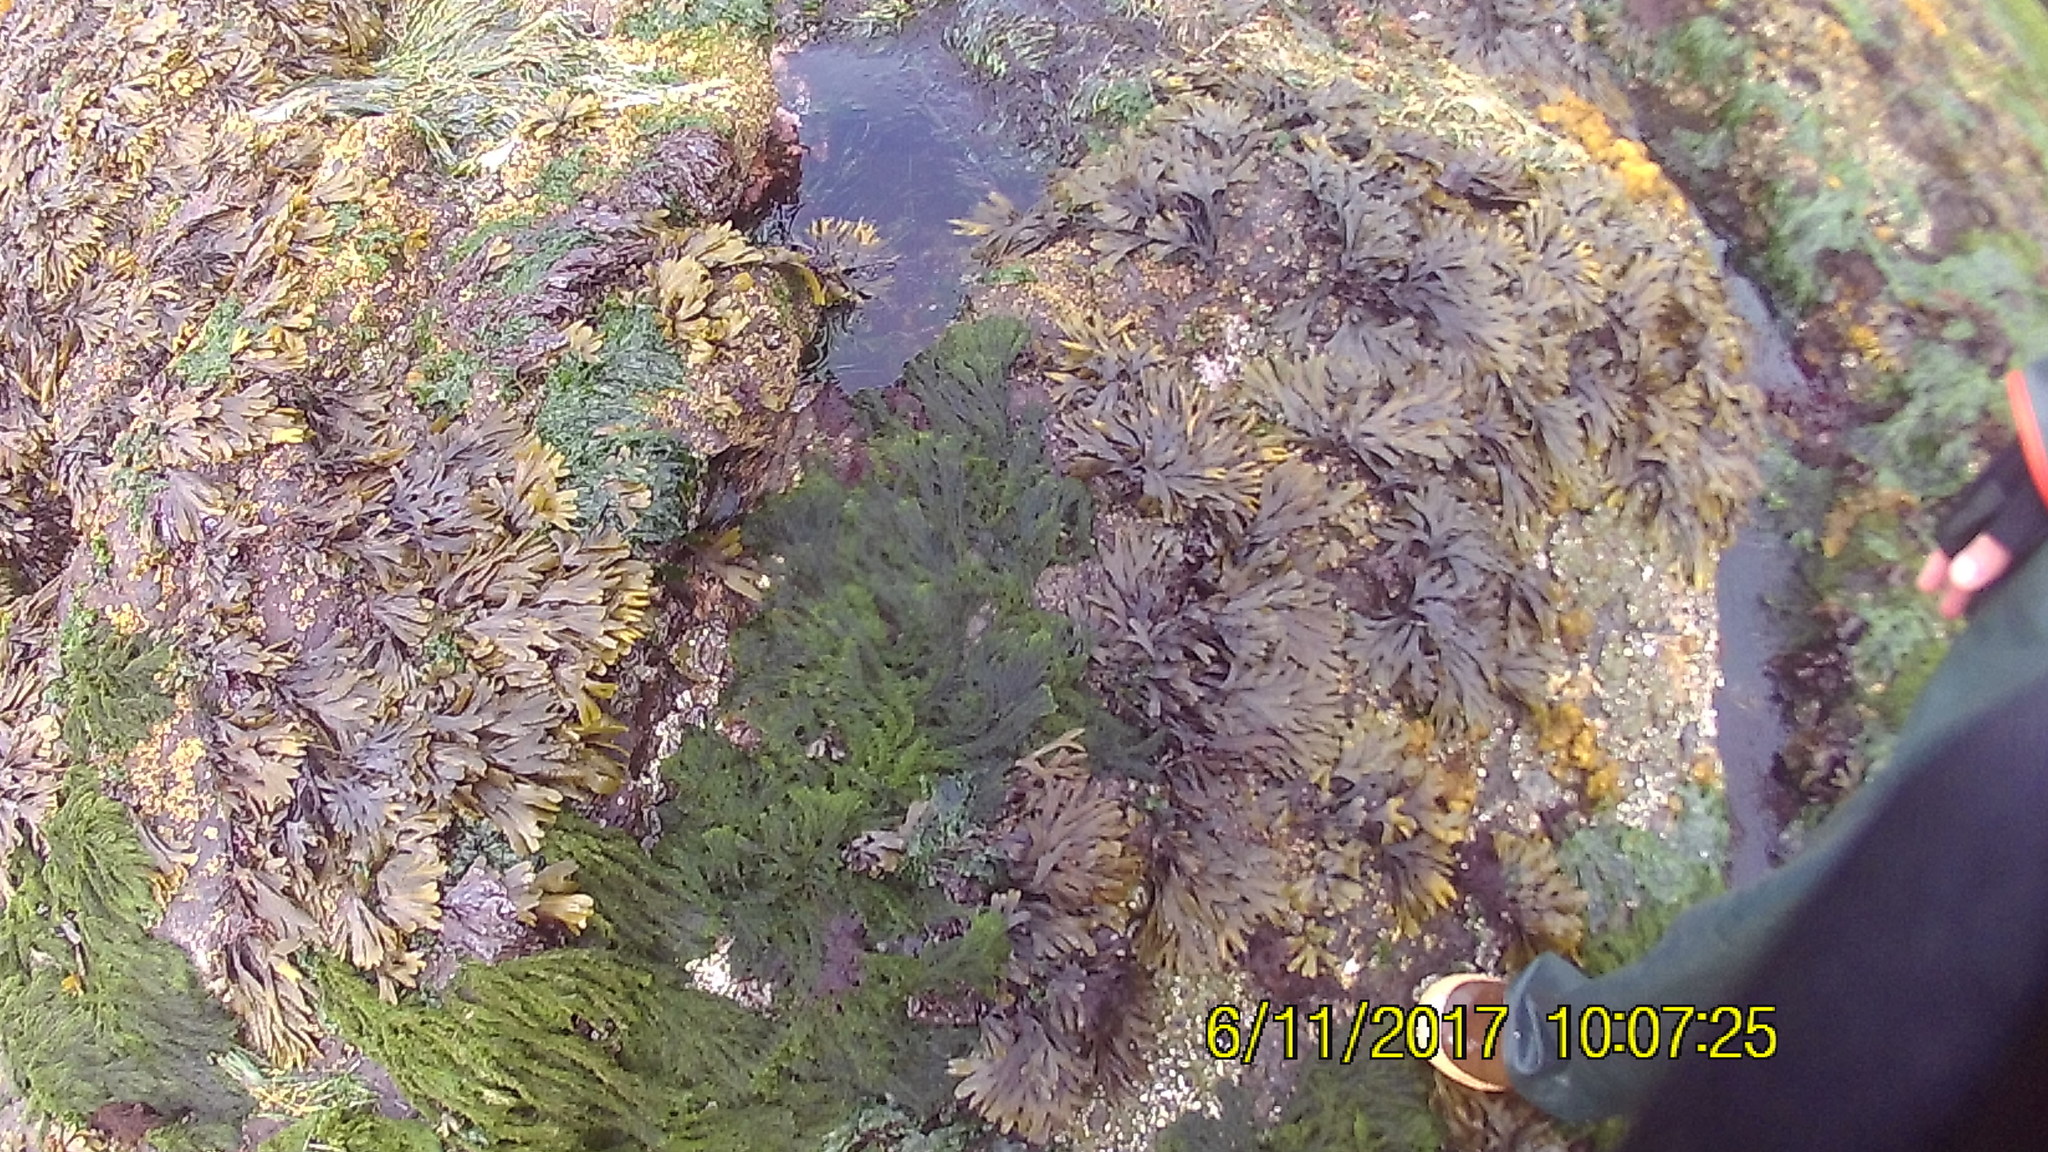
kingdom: Plantae
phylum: Chlorophyta
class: Ulvophyceae
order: Ulotrichales
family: Ulotrichaceae
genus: Acrosiphonia
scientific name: Acrosiphonia
